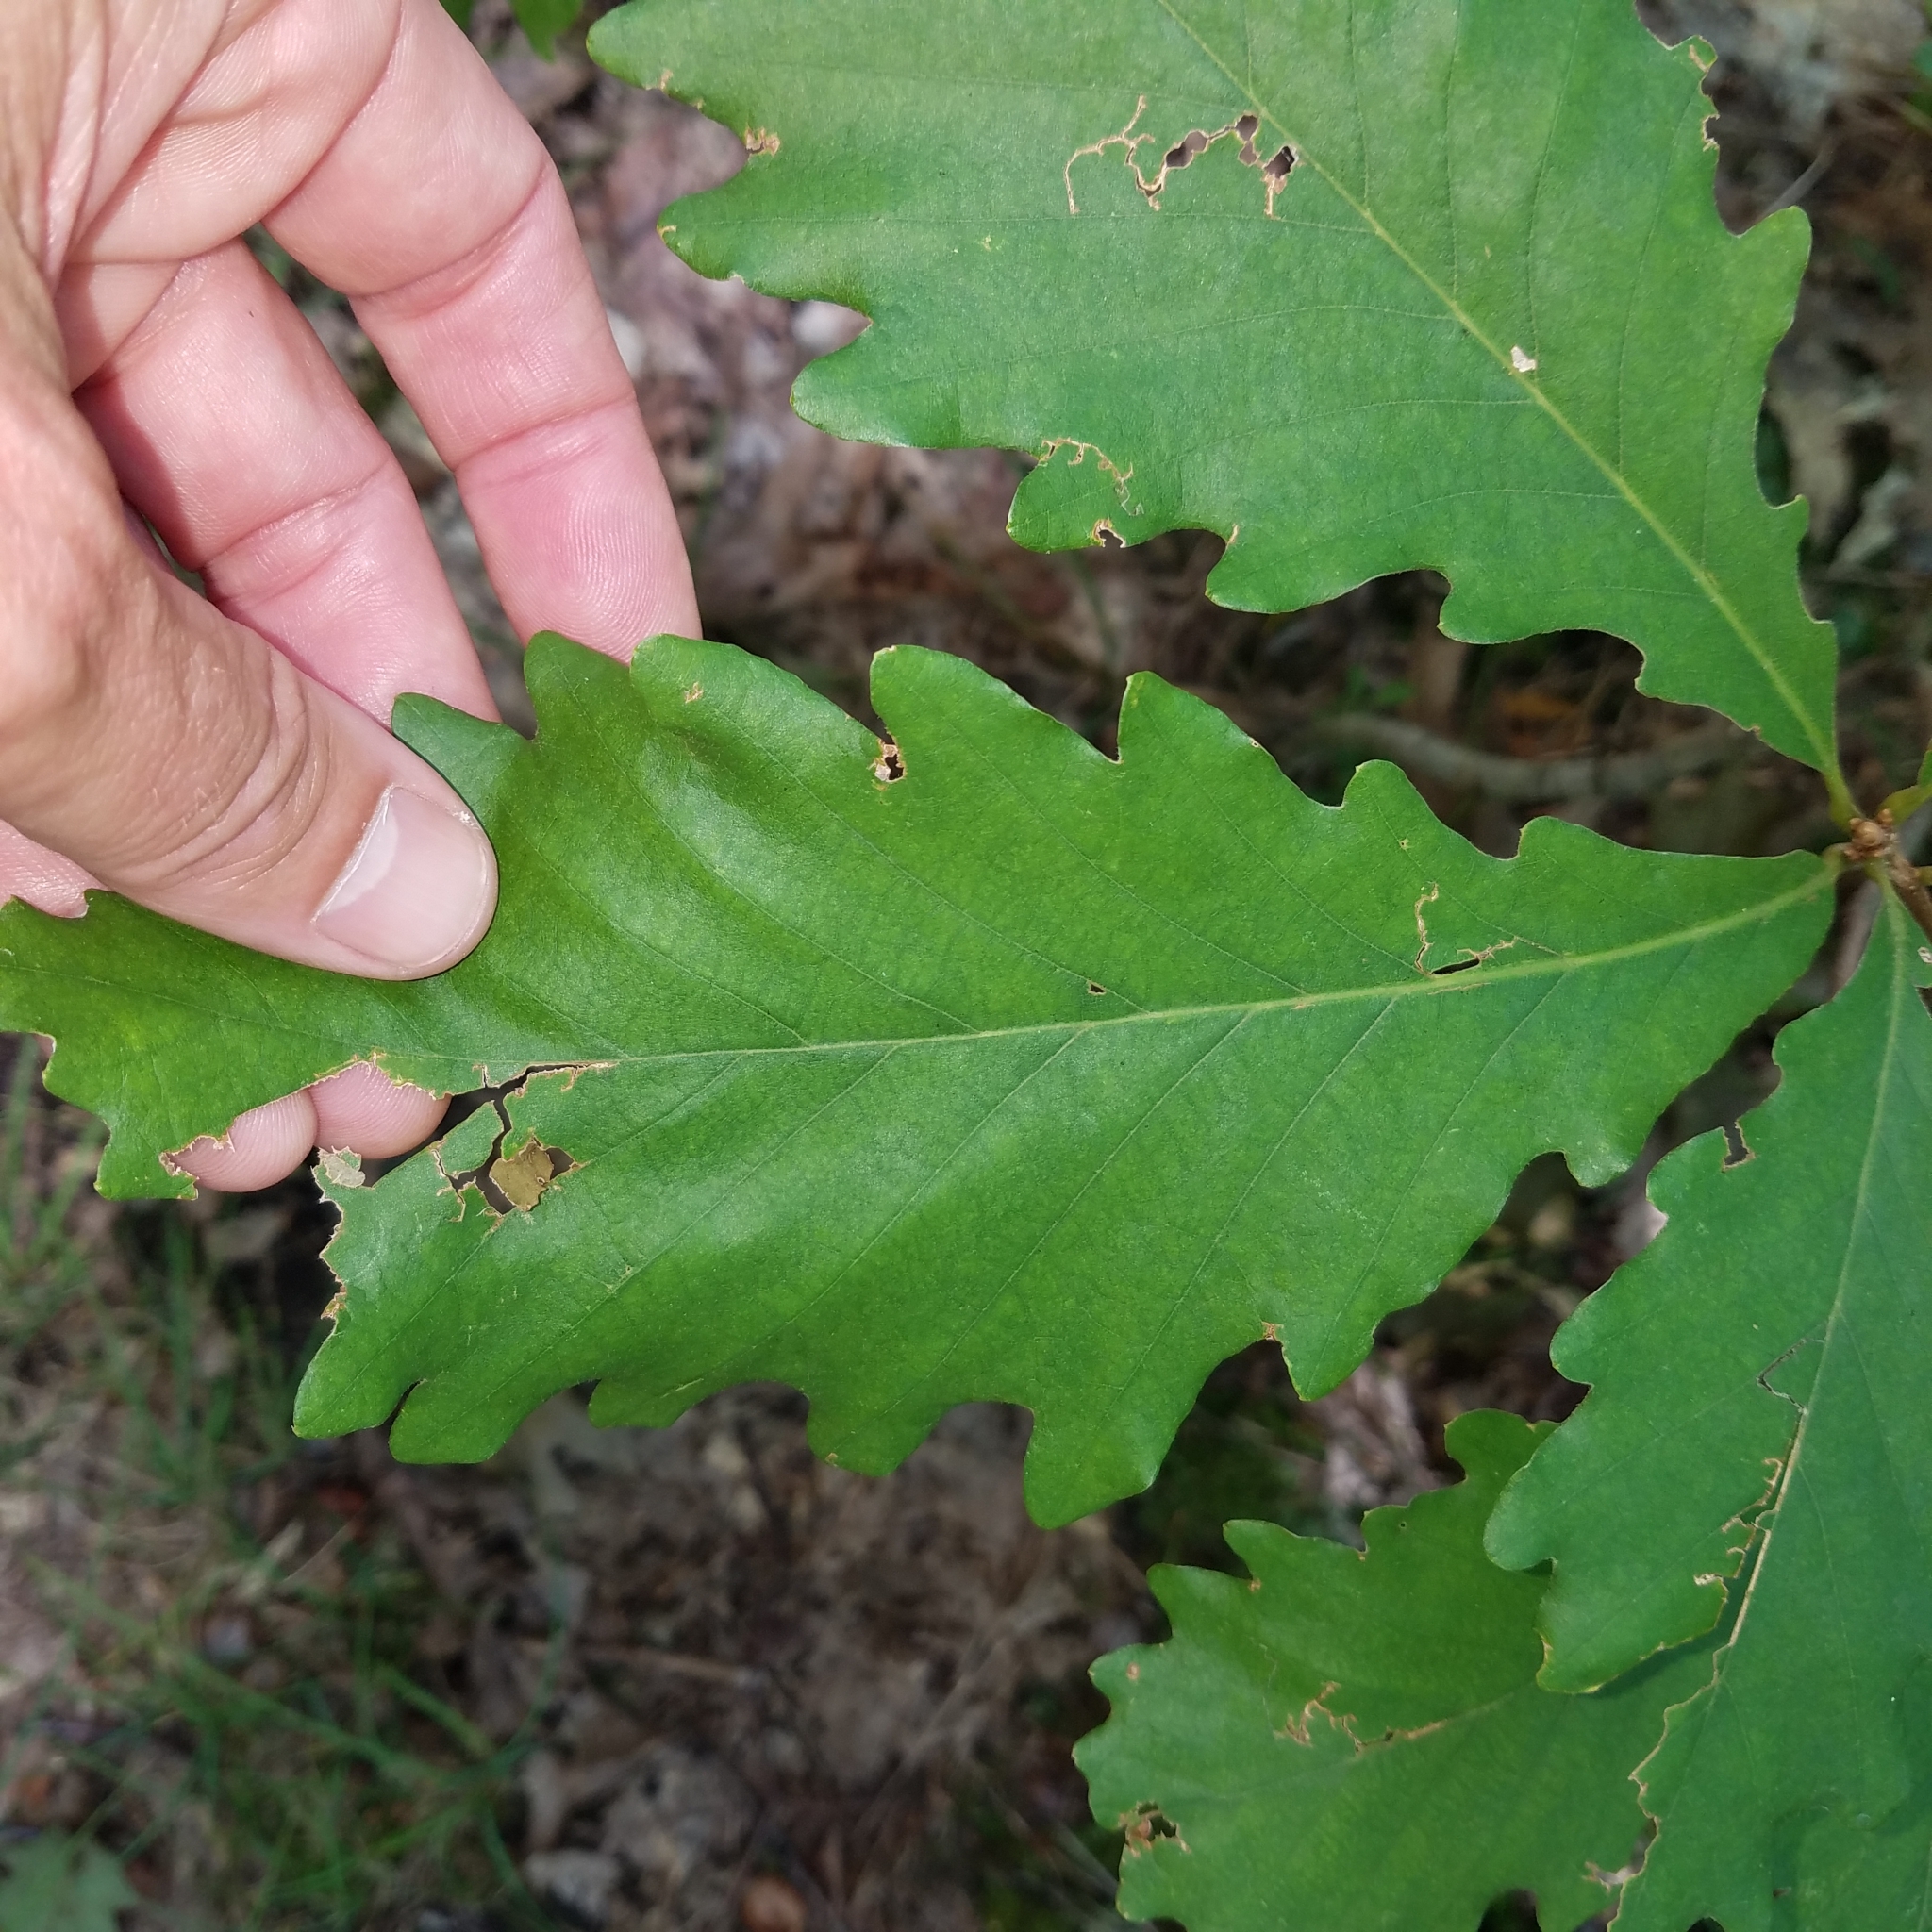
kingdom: Plantae
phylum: Tracheophyta
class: Magnoliopsida
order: Fagales
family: Fagaceae
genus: Quercus
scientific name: Quercus montana
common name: Chestnut oak
